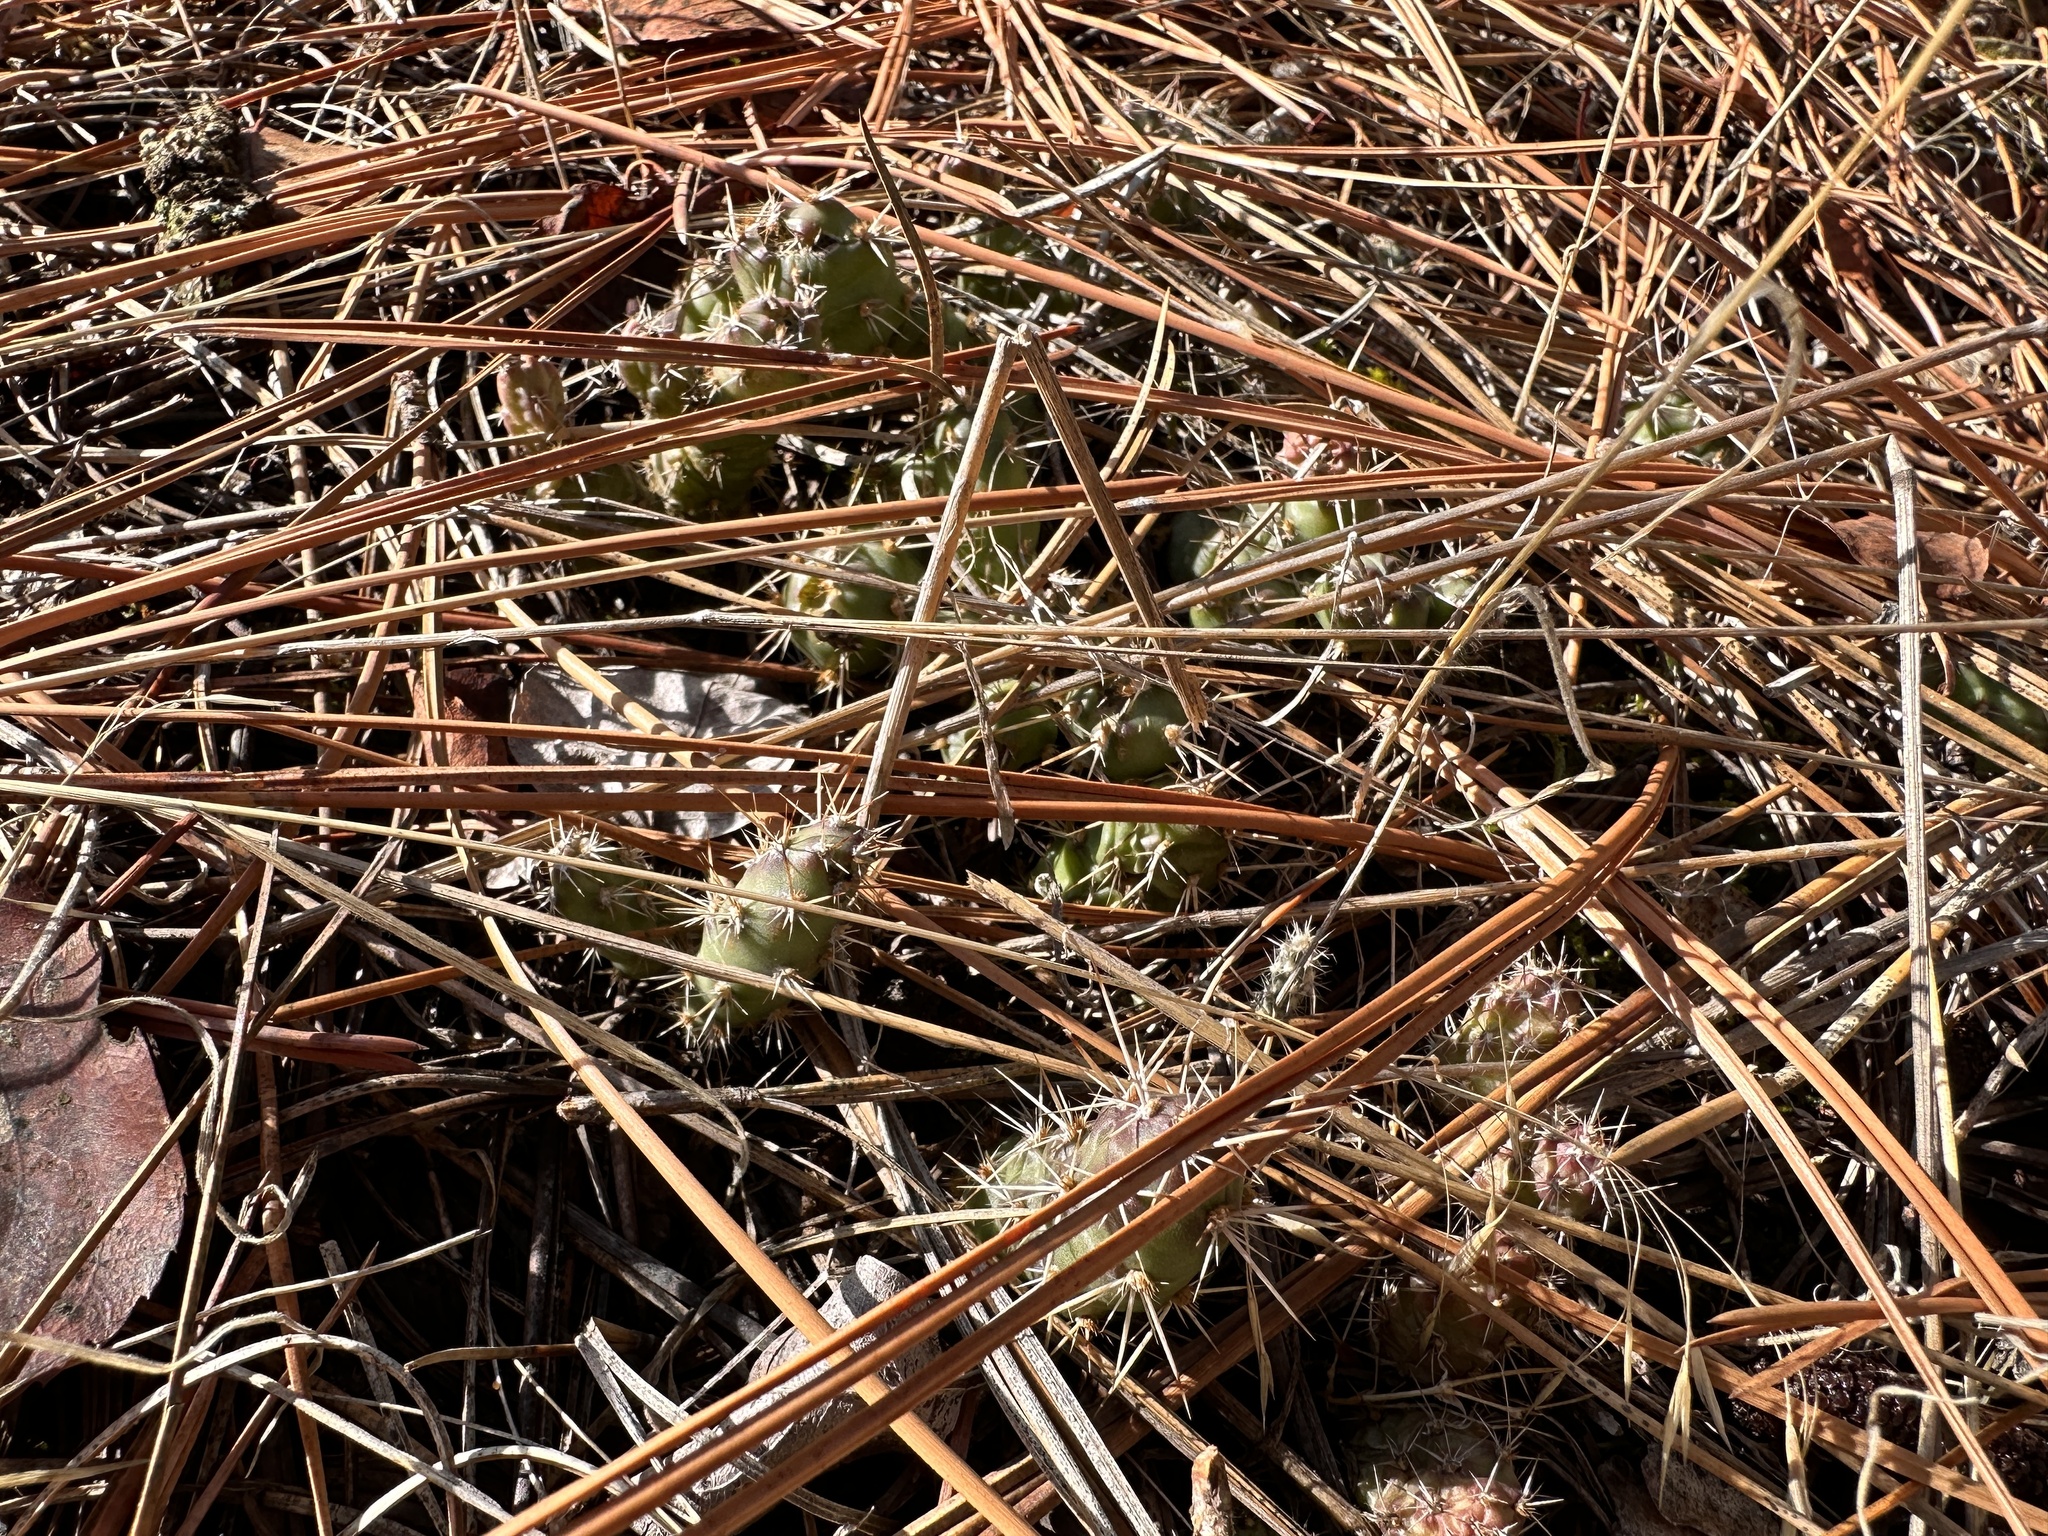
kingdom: Plantae
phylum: Tracheophyta
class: Magnoliopsida
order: Caryophyllales
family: Cactaceae
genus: Opuntia
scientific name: Opuntia fragilis
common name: Brittle cactus
